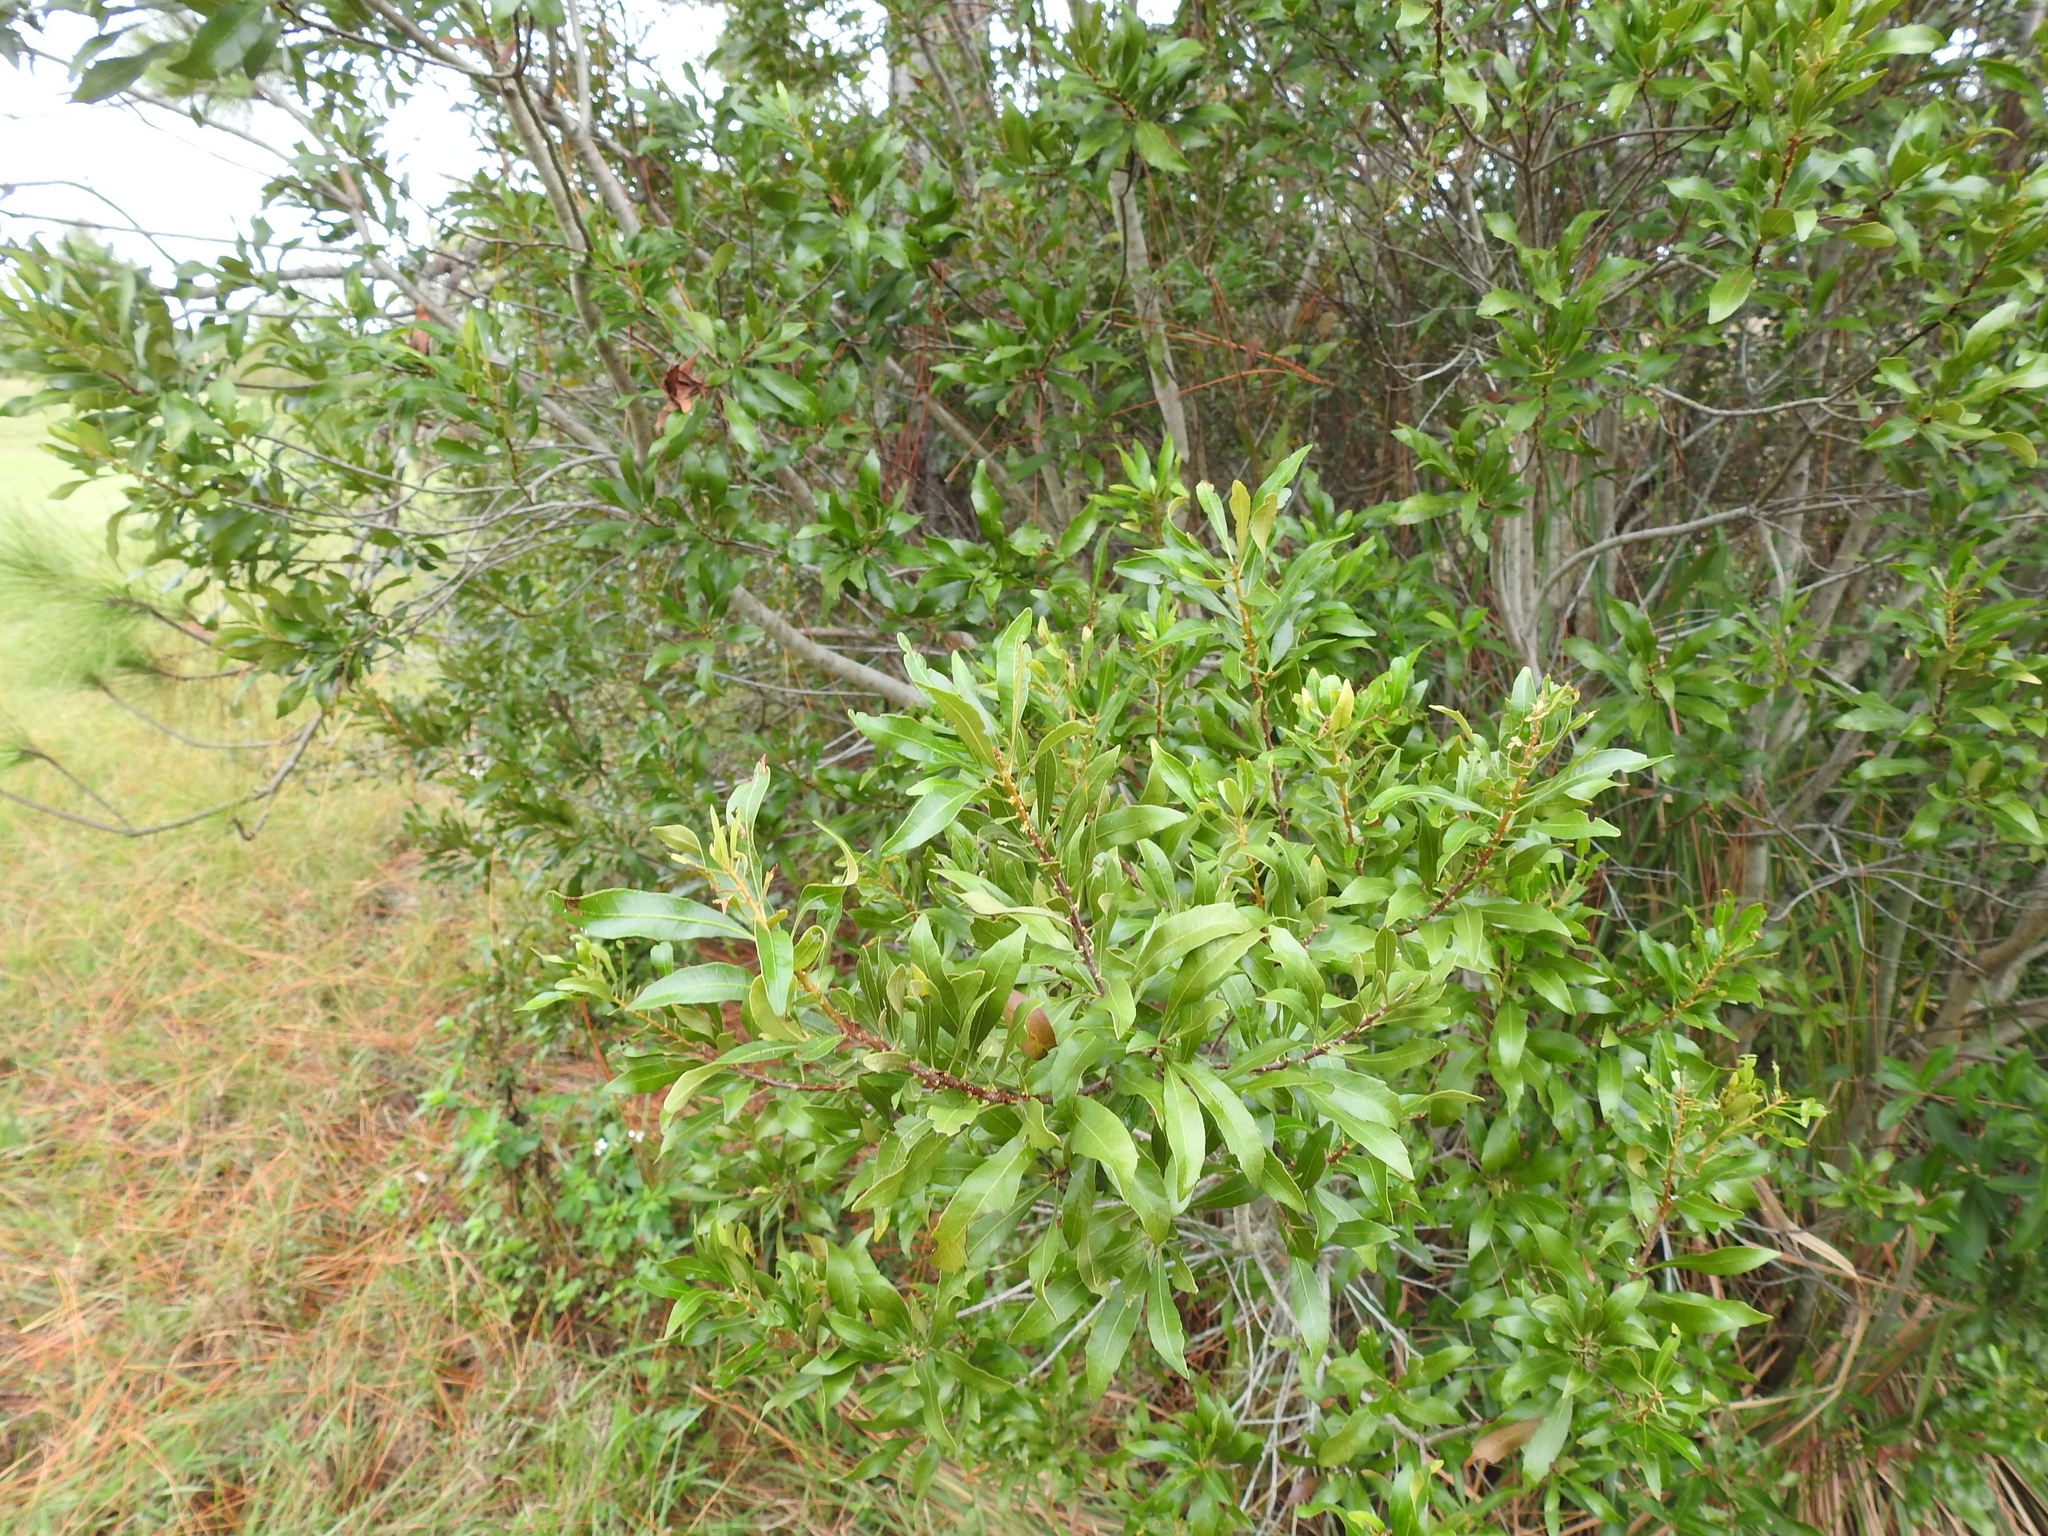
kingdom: Plantae
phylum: Tracheophyta
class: Magnoliopsida
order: Fagales
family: Myricaceae
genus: Morella
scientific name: Morella cerifera
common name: Wax myrtle
